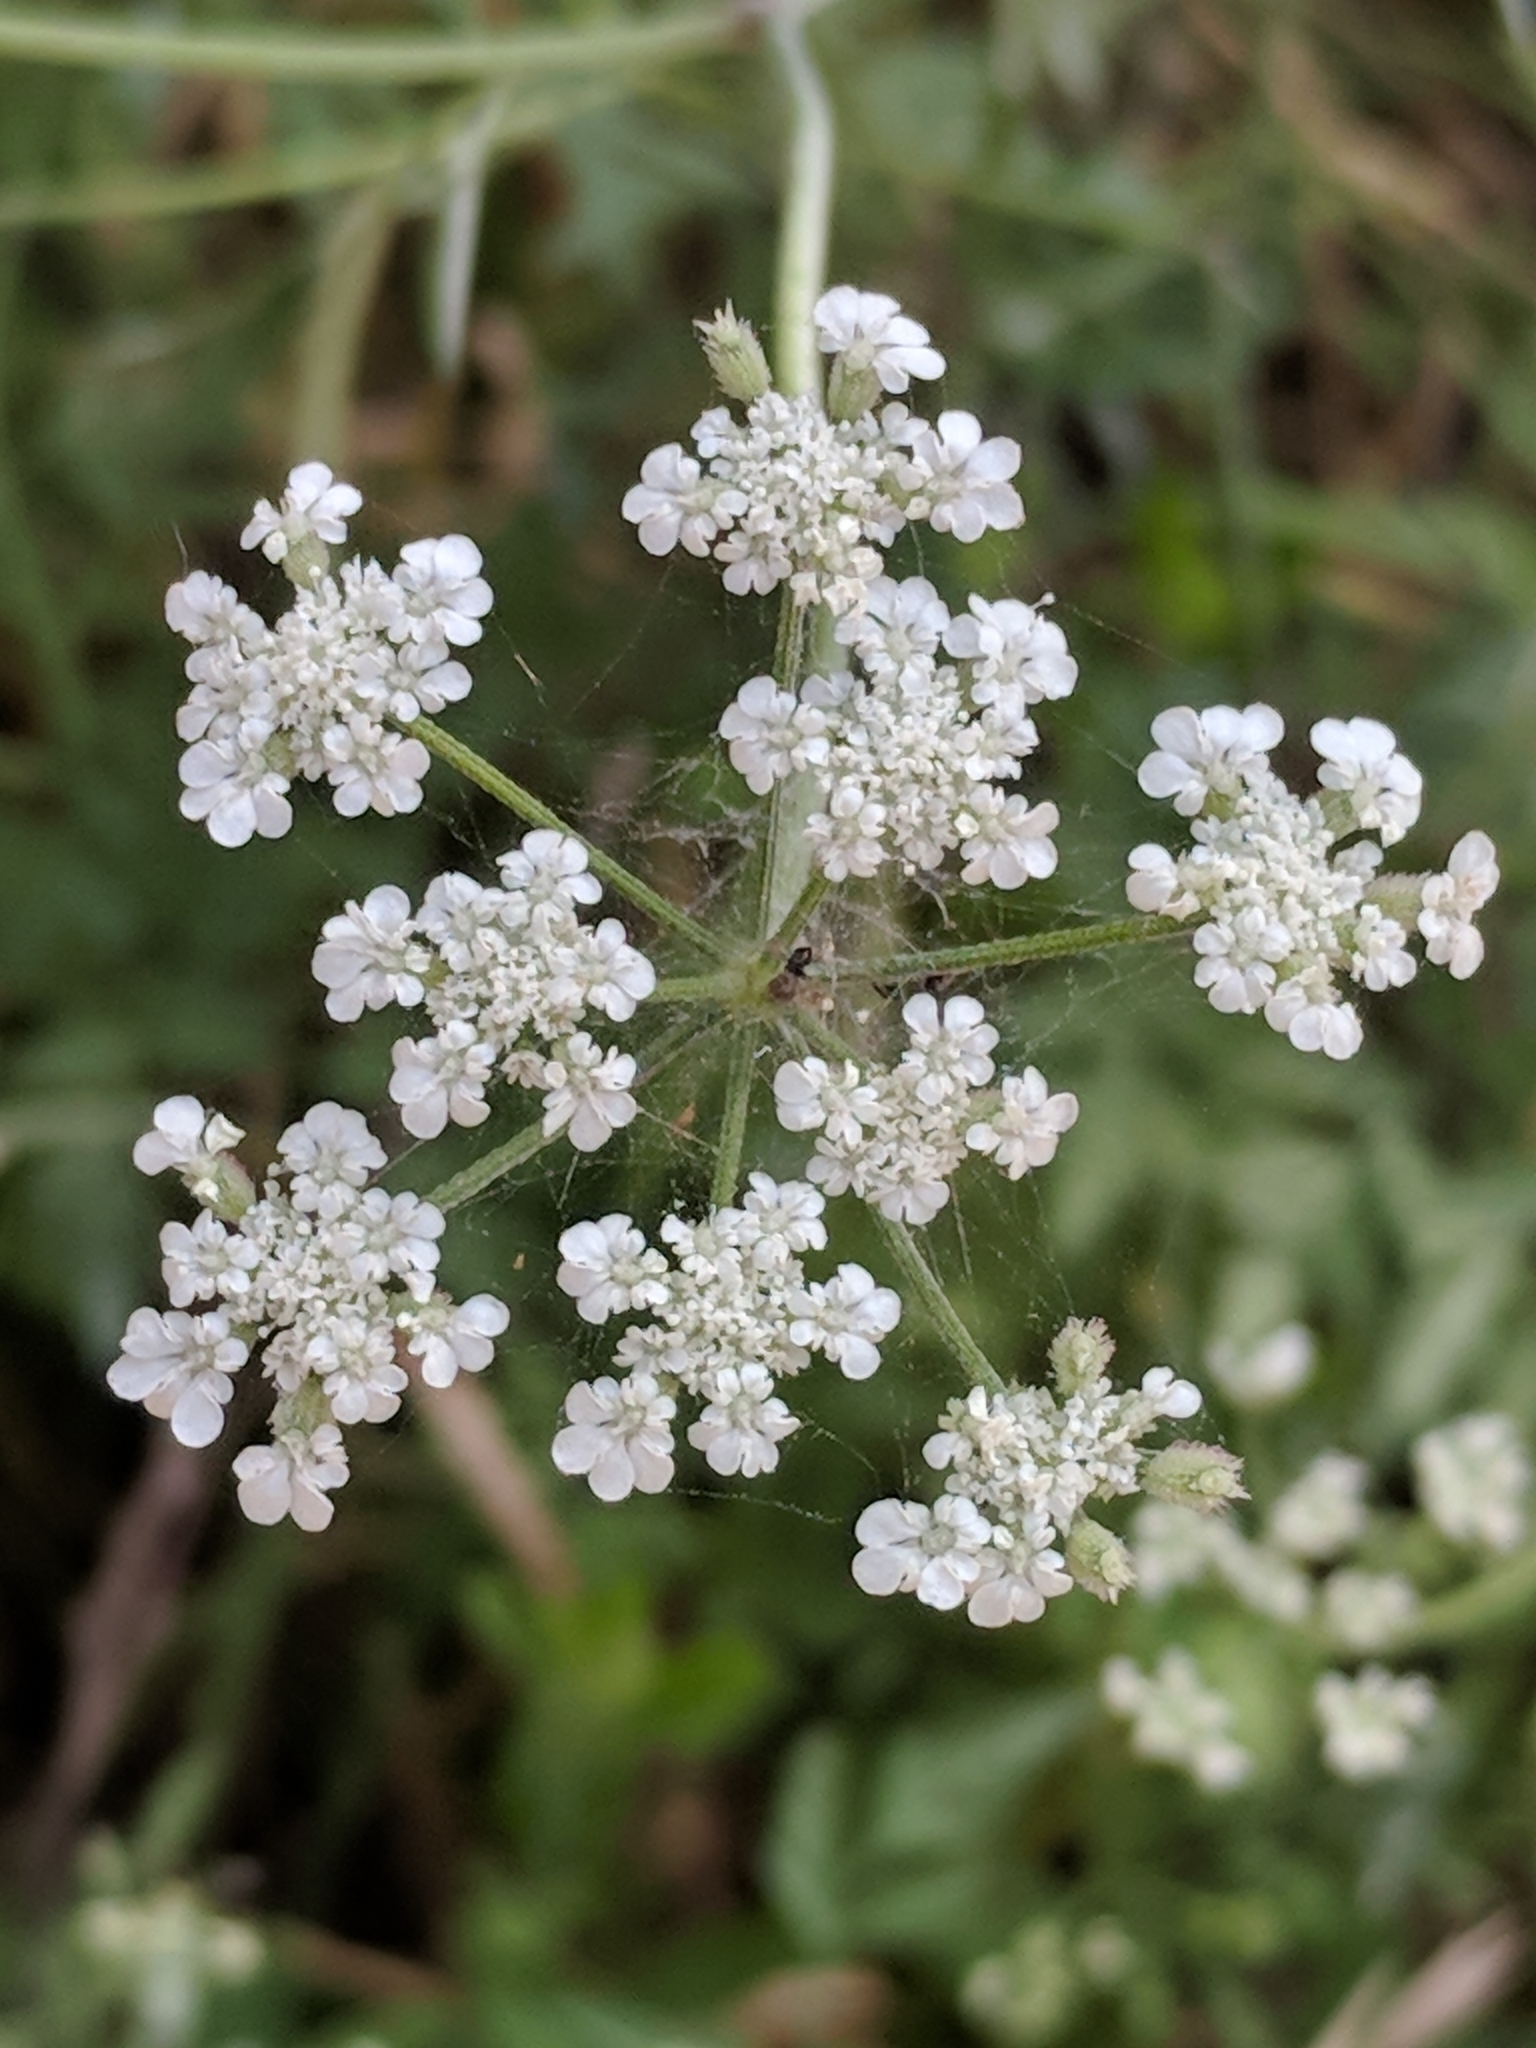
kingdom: Plantae
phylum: Tracheophyta
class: Magnoliopsida
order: Apiales
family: Apiaceae
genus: Torilis
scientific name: Torilis arvensis
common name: Spreading hedge-parsley
